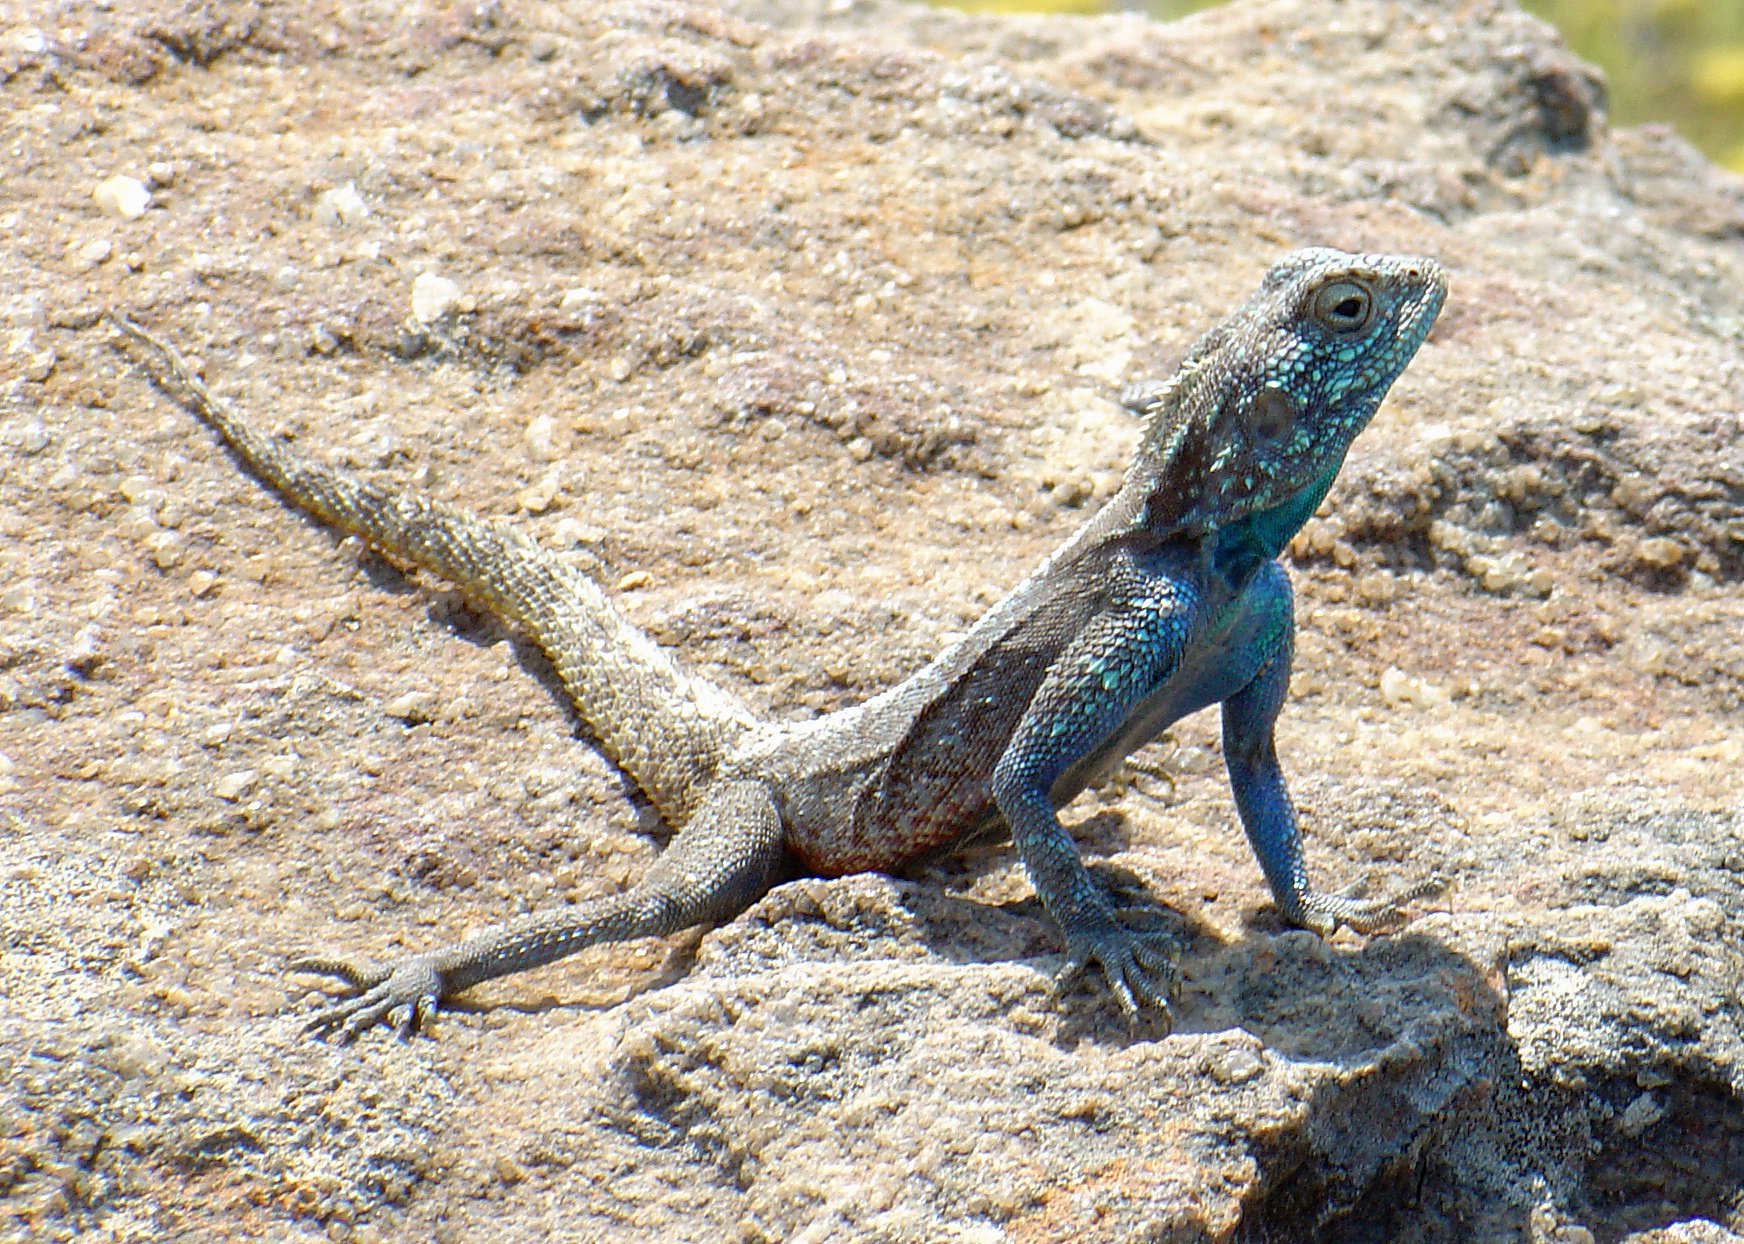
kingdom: Animalia
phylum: Chordata
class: Squamata
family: Agamidae
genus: Agama
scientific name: Agama atra
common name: Southern african rock agama
